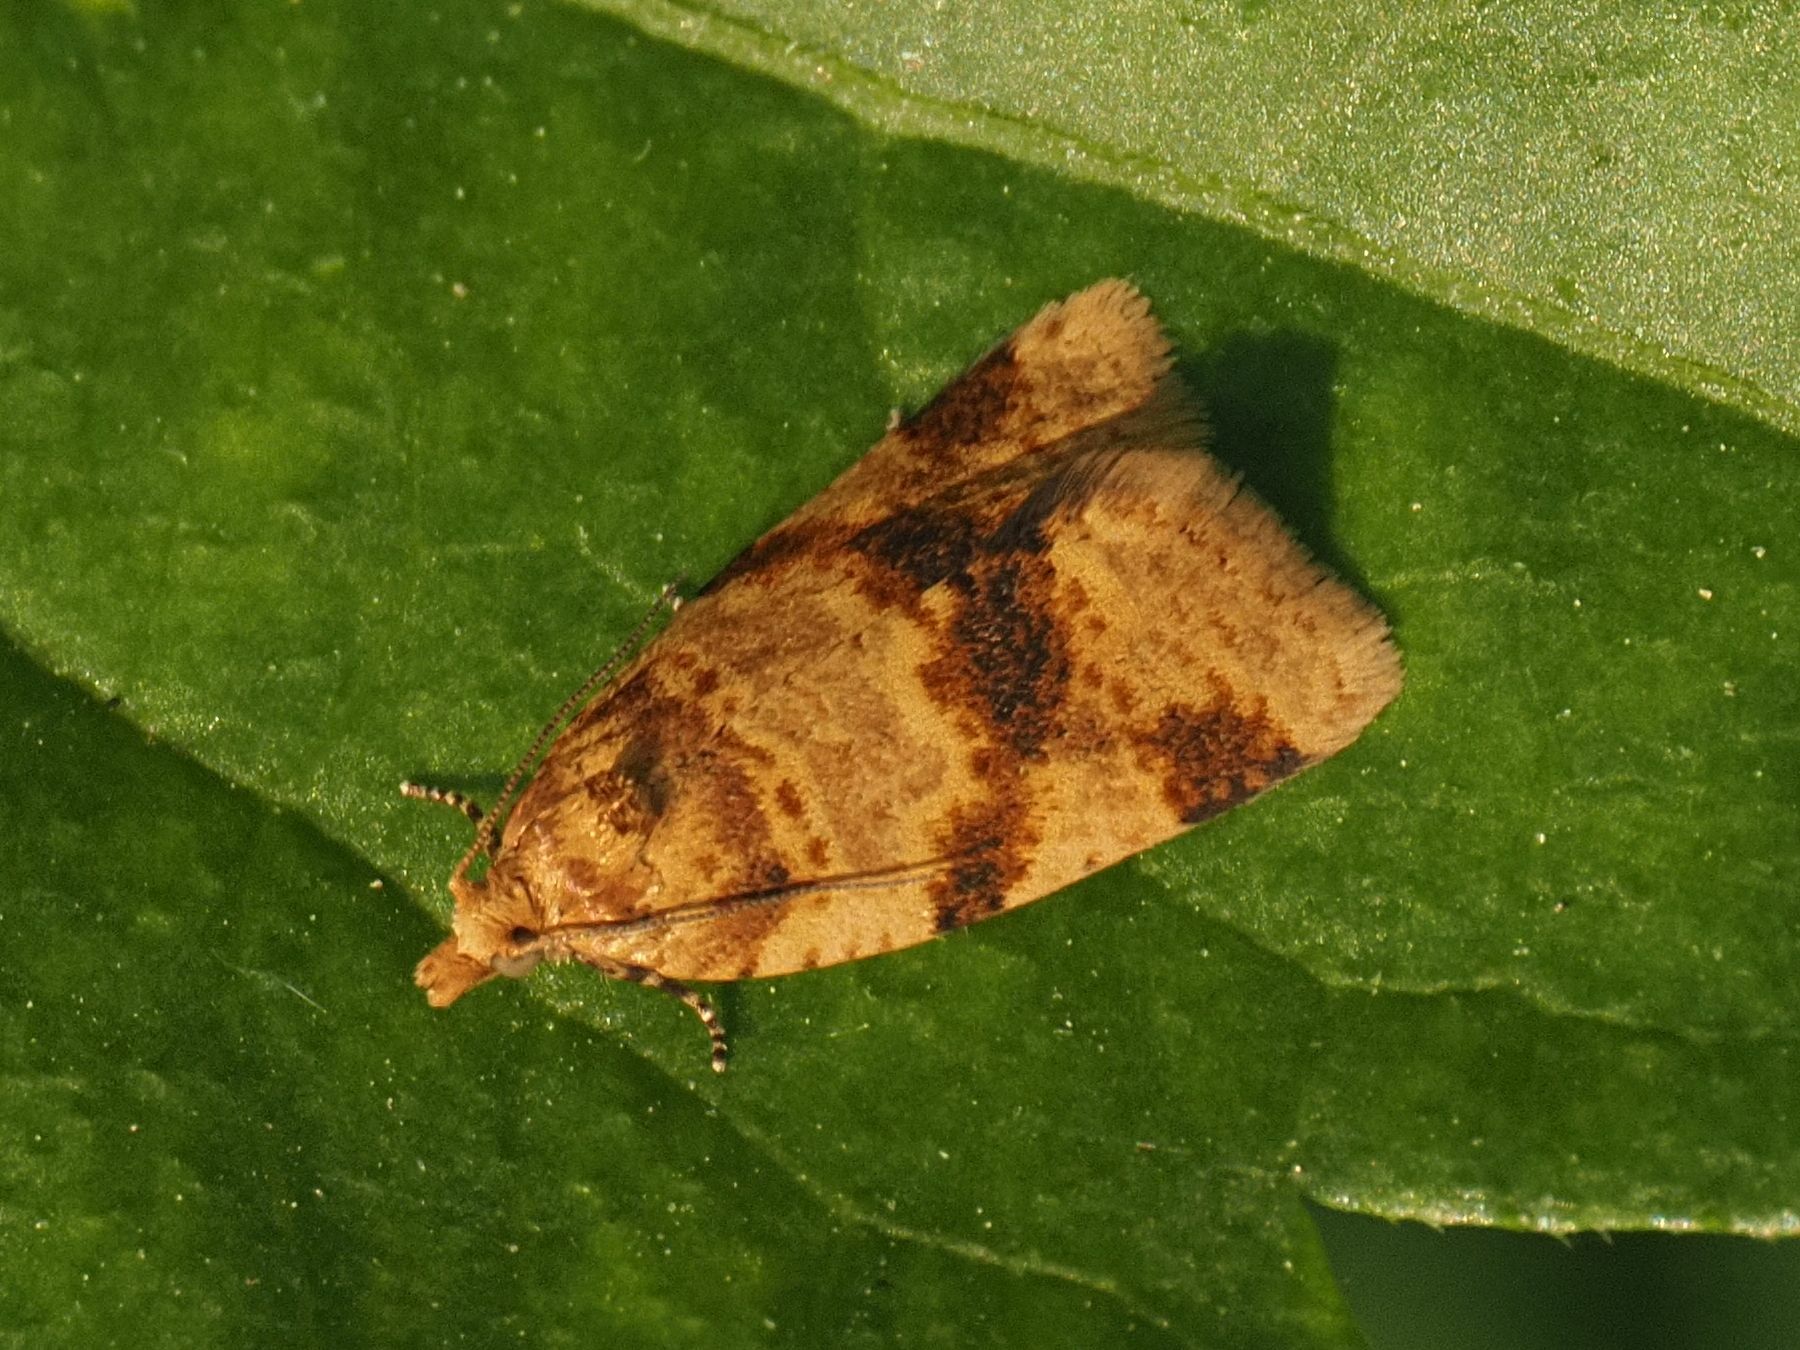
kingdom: Animalia
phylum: Arthropoda
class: Insecta
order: Lepidoptera
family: Tortricidae
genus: Epagoge
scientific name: Epagoge grotiana
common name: Brown-barred twist
